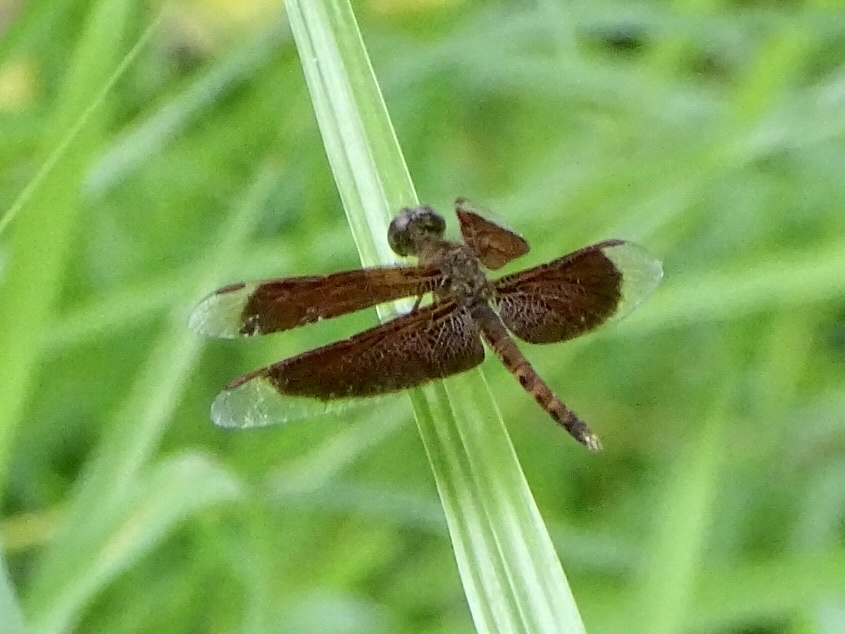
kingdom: Animalia
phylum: Arthropoda
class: Insecta
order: Odonata
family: Libellulidae
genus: Neurothemis
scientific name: Neurothemis fluctuans
